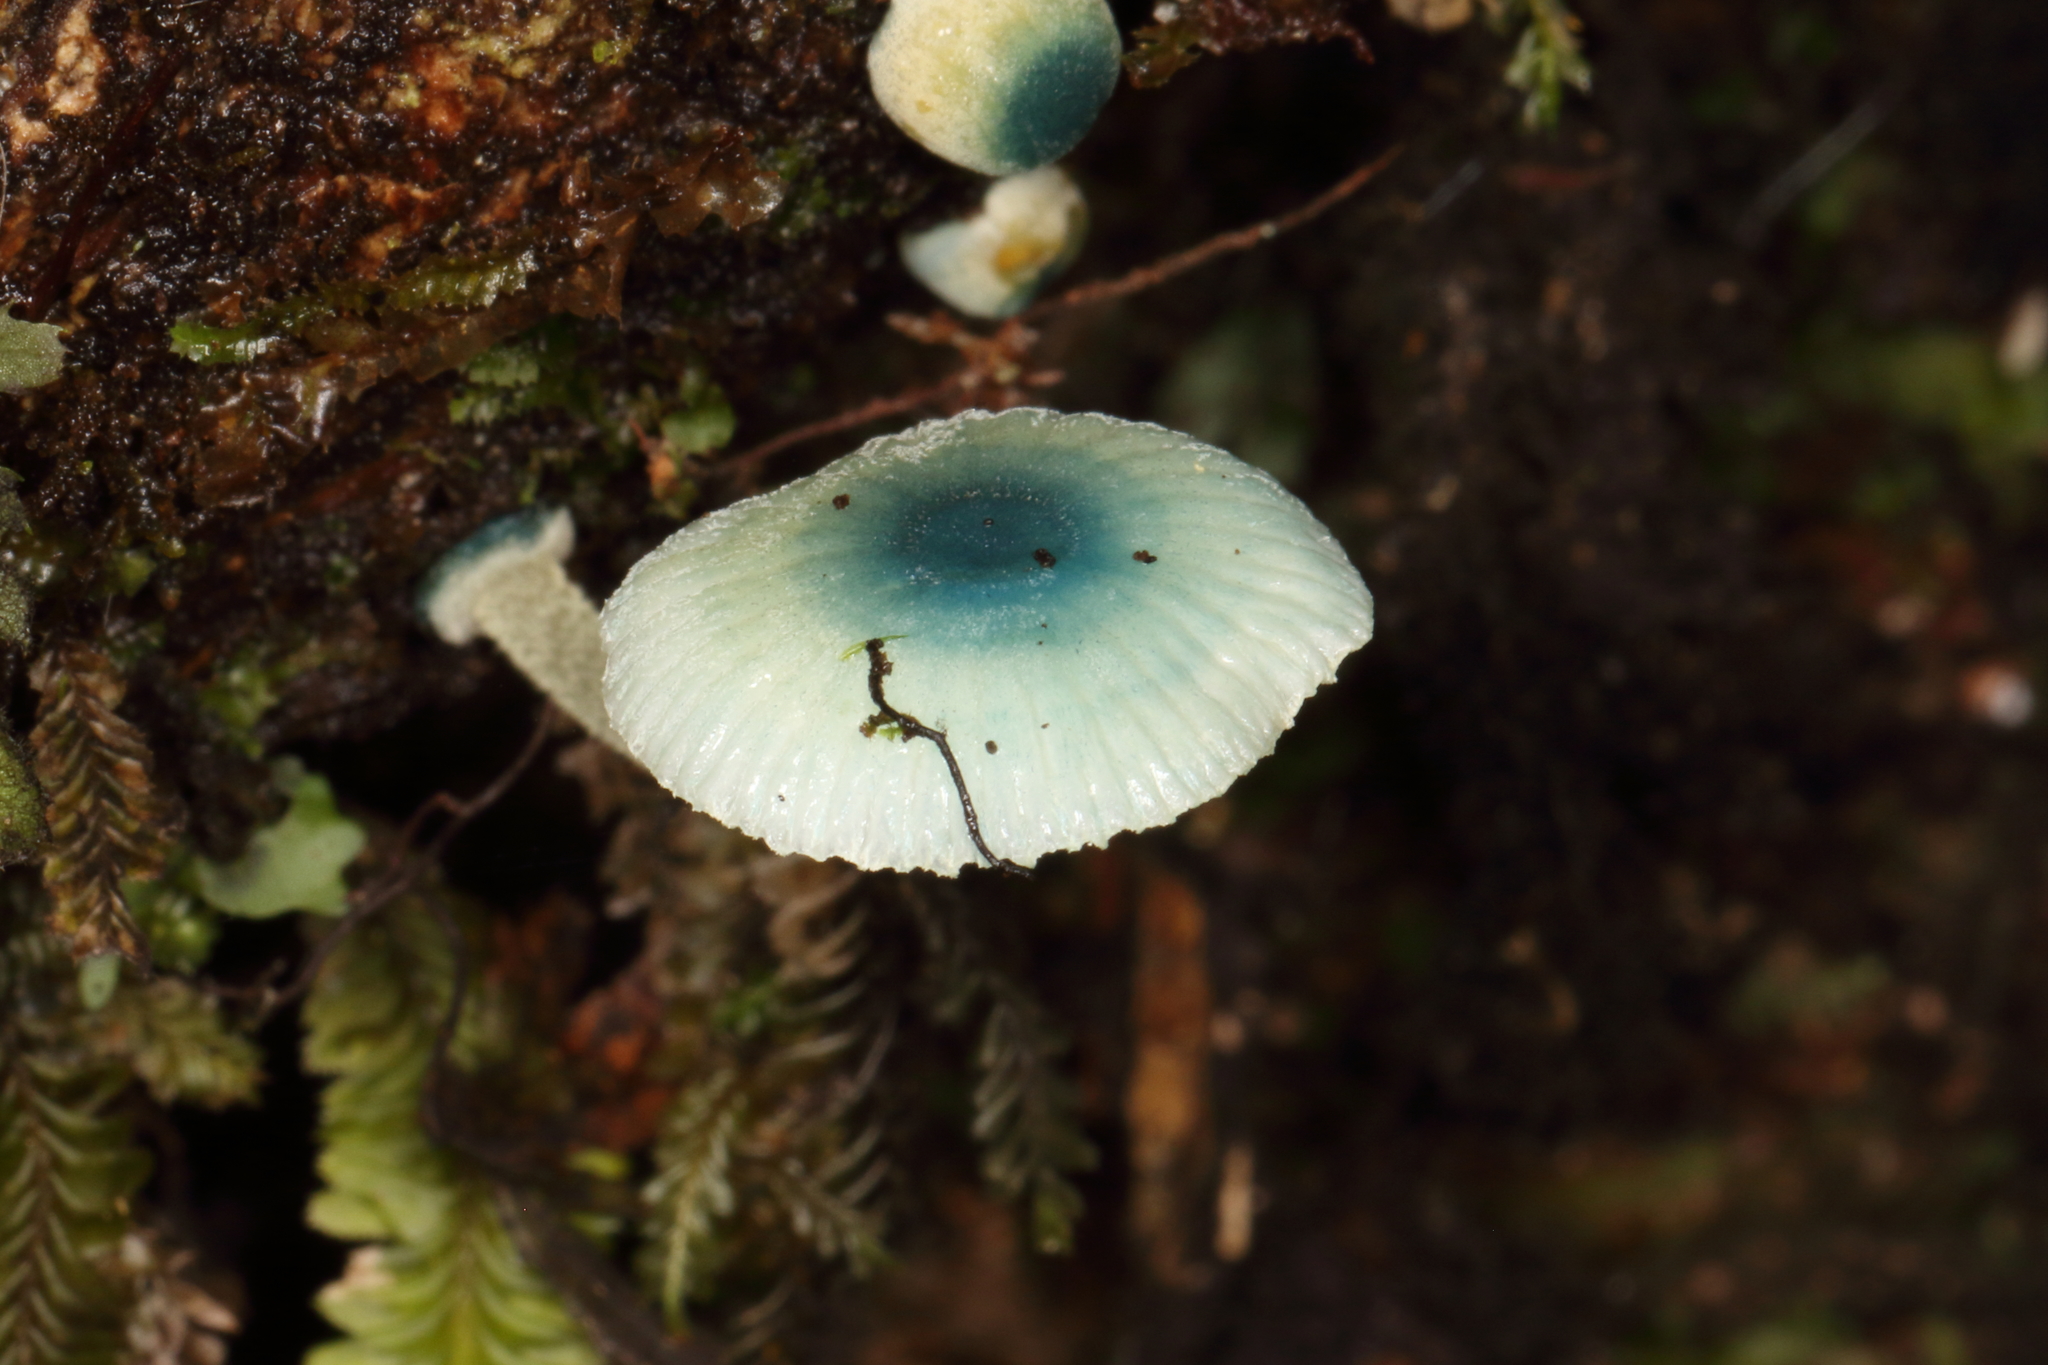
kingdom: Fungi
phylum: Basidiomycota
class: Agaricomycetes
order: Agaricales
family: Mycenaceae
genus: Mycena
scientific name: Mycena interrupta
